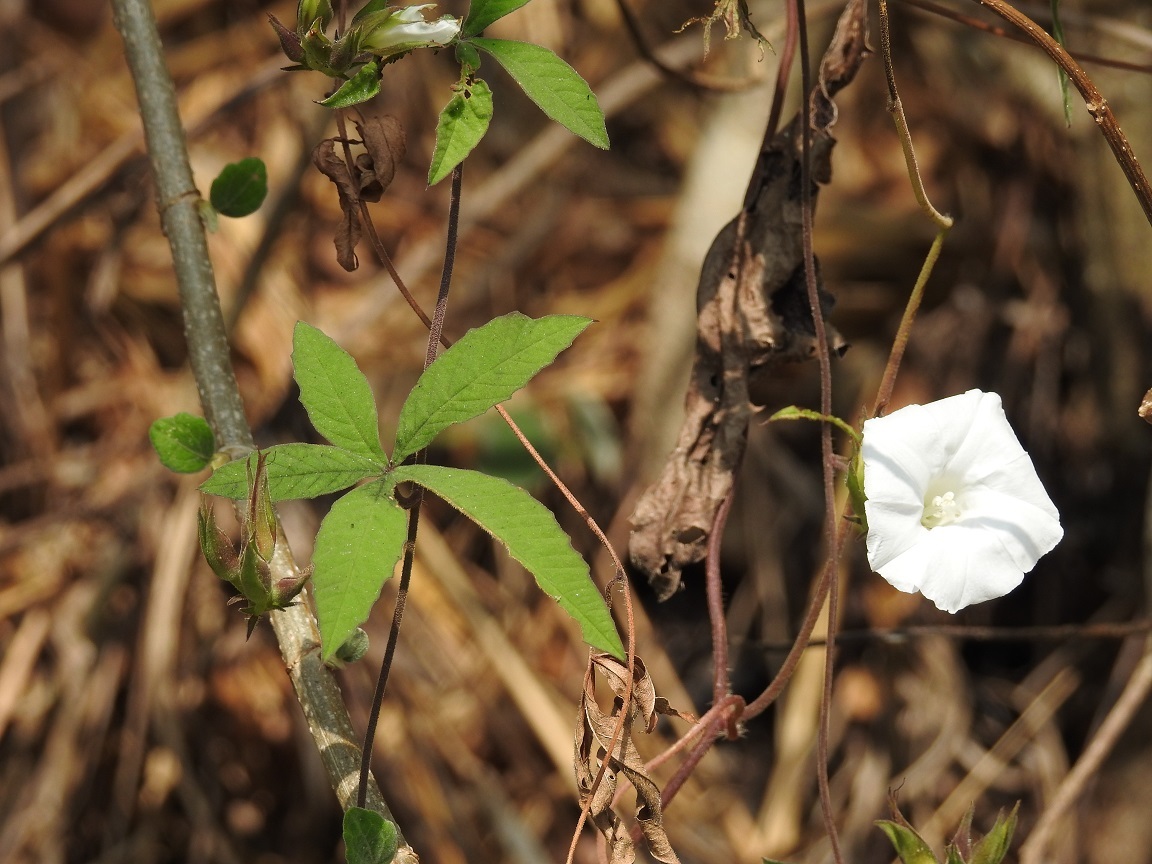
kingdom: Plantae
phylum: Tracheophyta
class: Magnoliopsida
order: Solanales
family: Convolvulaceae
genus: Distimake
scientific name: Distimake cissoides
